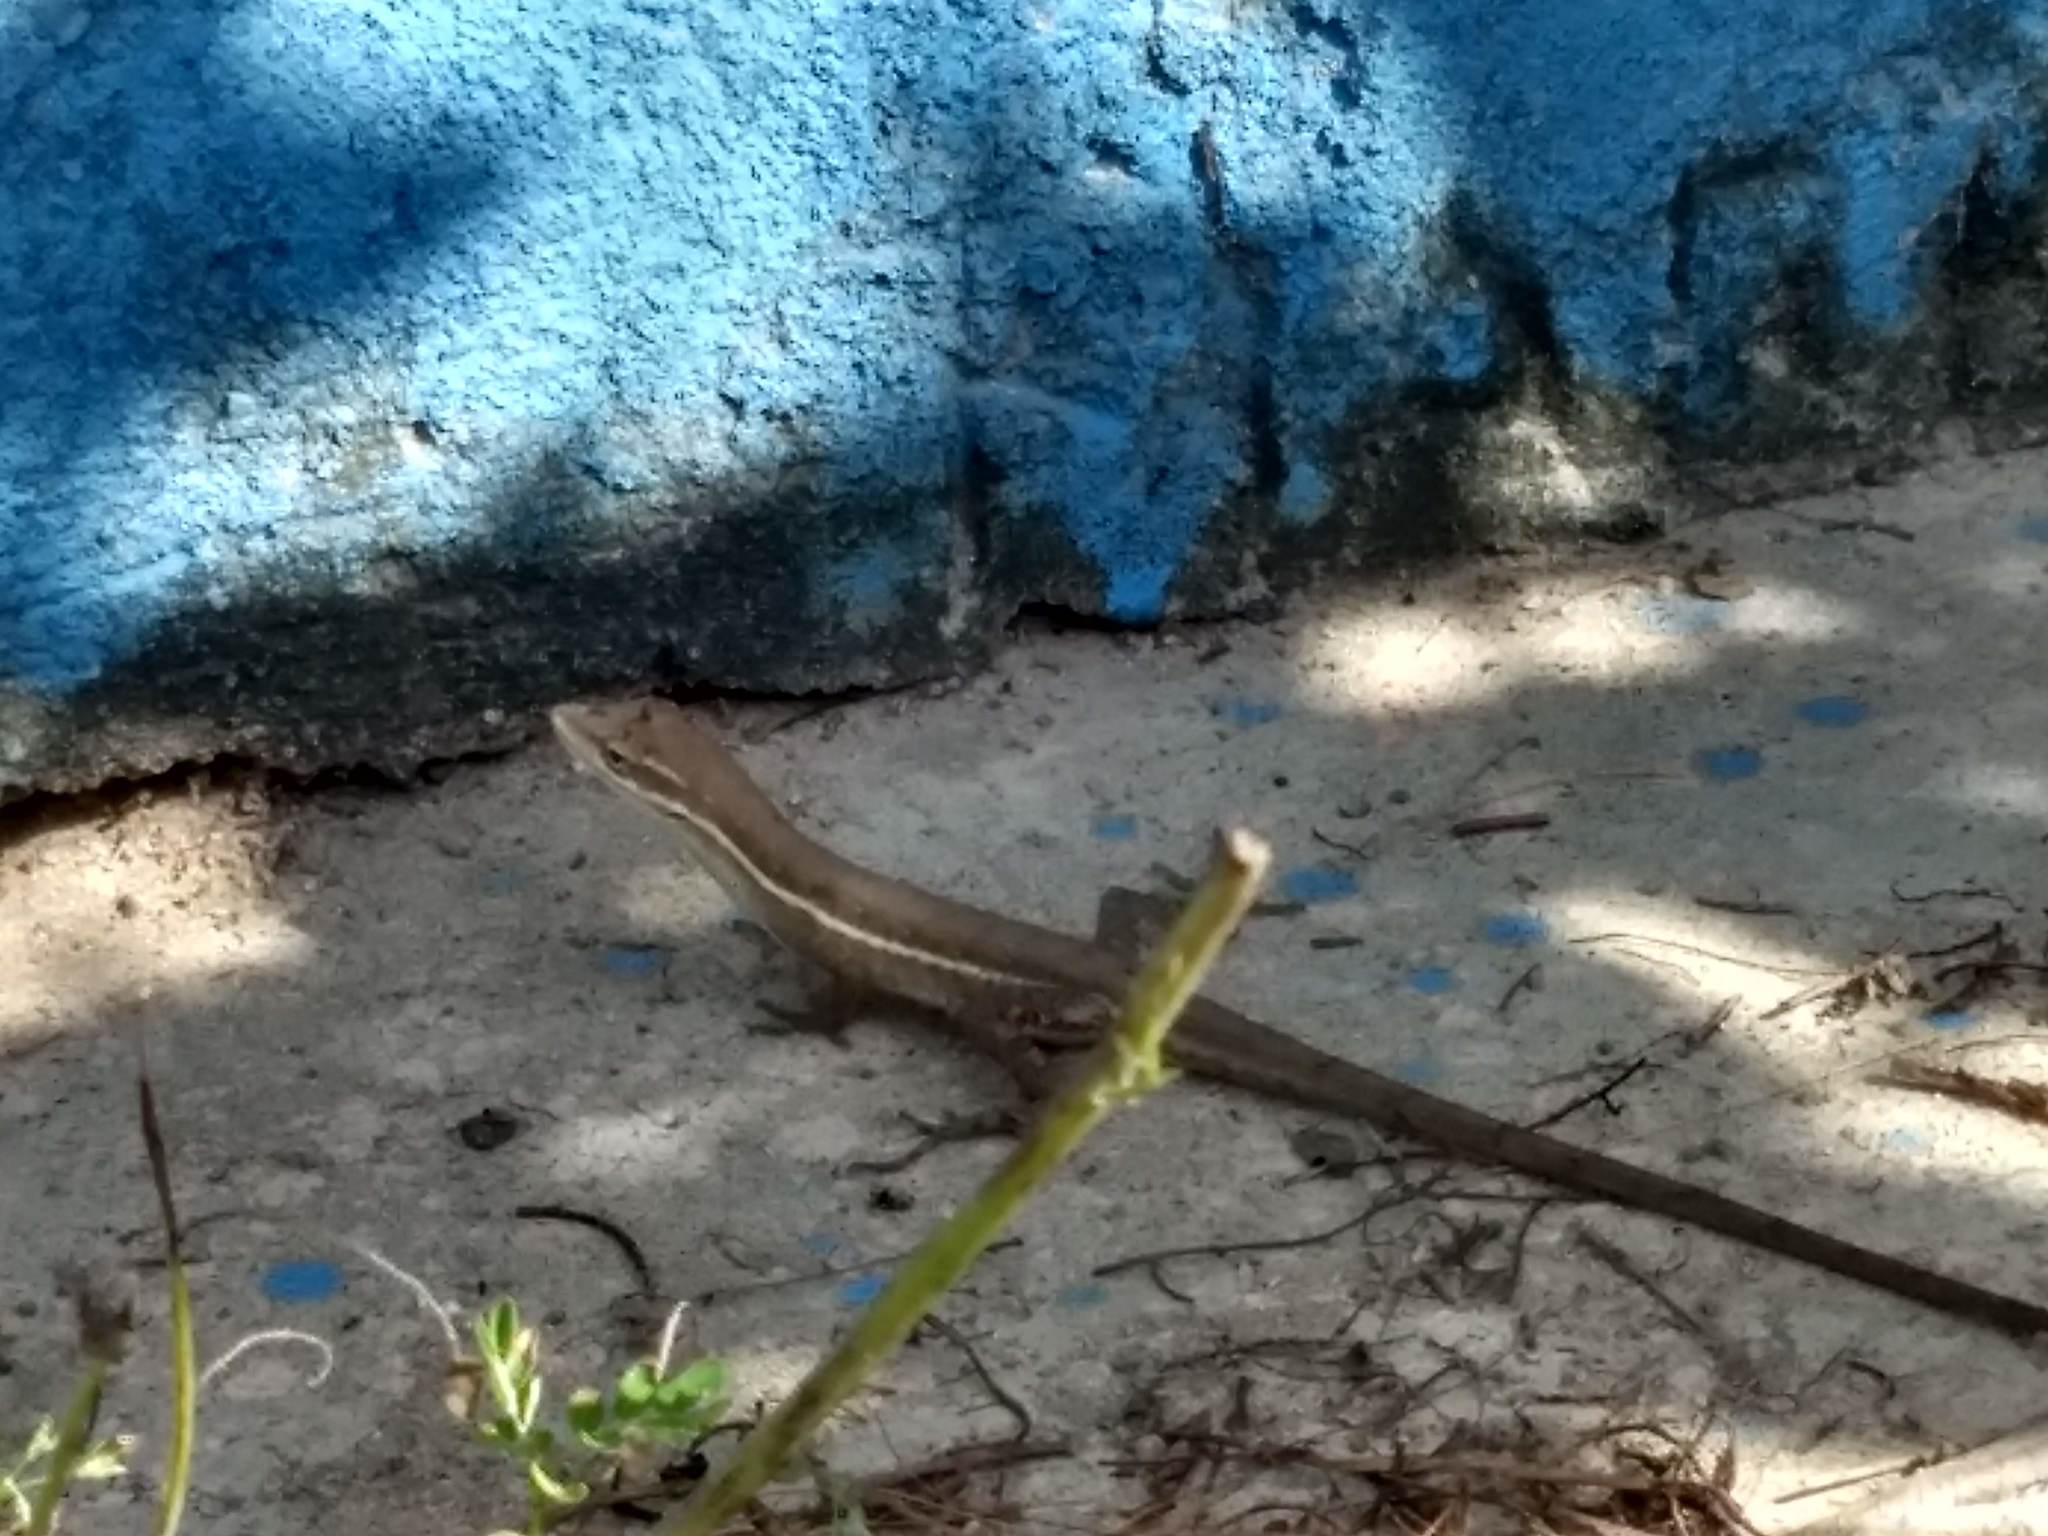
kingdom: Animalia
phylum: Chordata
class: Squamata
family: Dactyloidae
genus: Anolis
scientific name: Anolis auratus
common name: Grass anole
